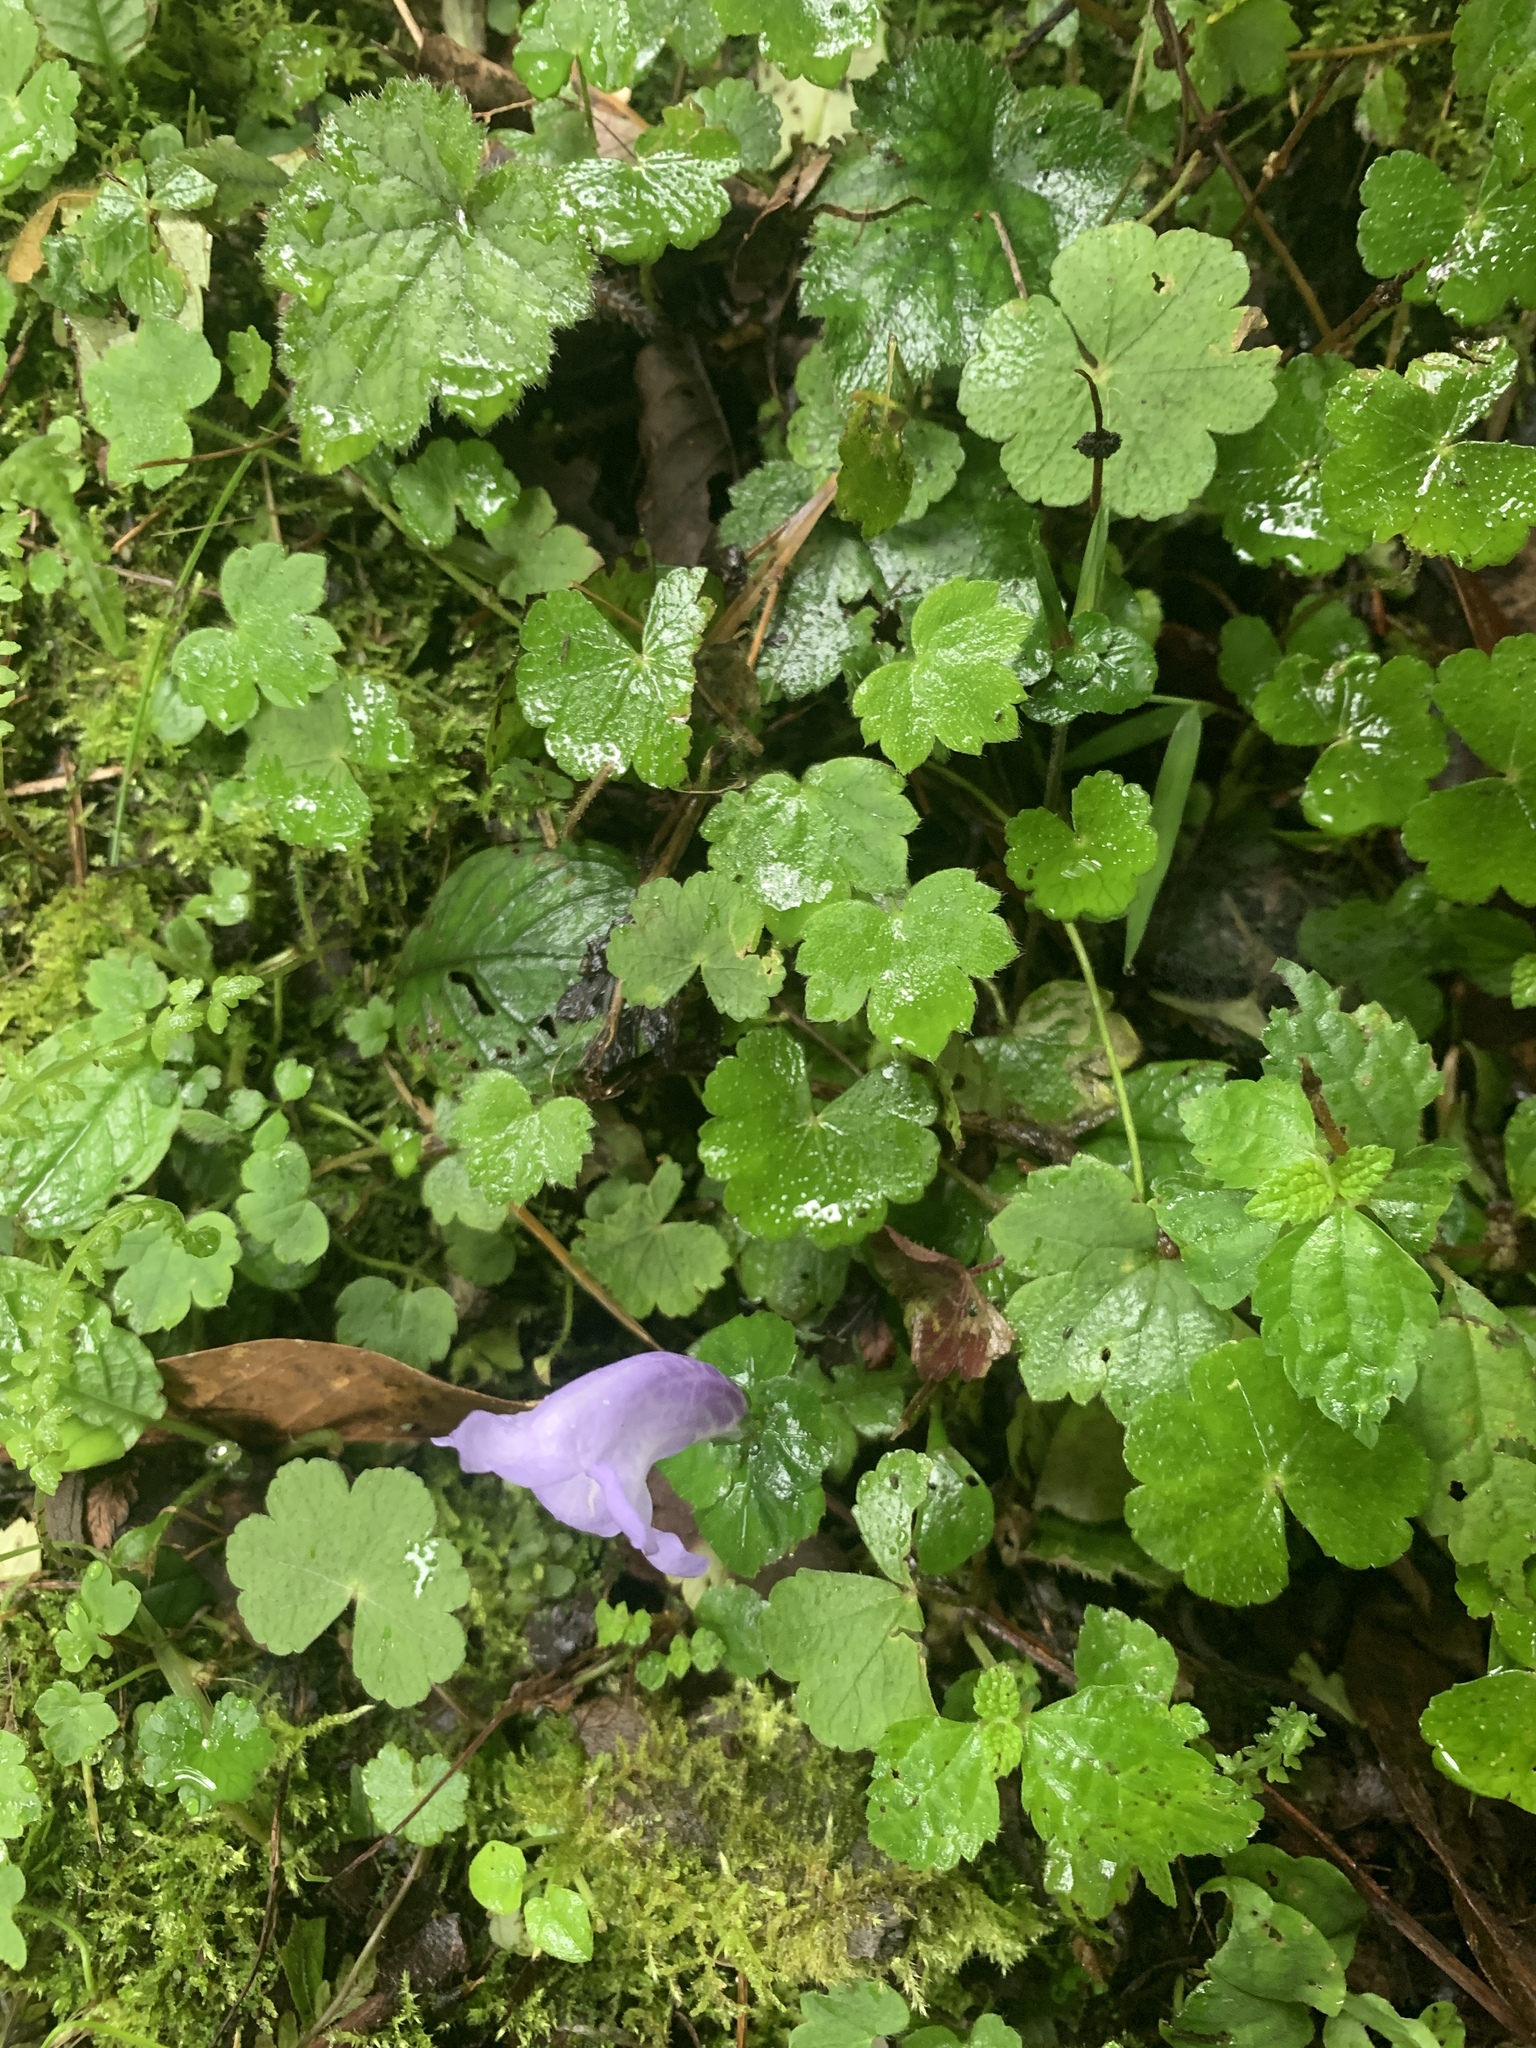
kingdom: Plantae
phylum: Tracheophyta
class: Magnoliopsida
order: Lamiales
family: Acanthaceae
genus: Strobilanthes
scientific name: Strobilanthes wallichii
